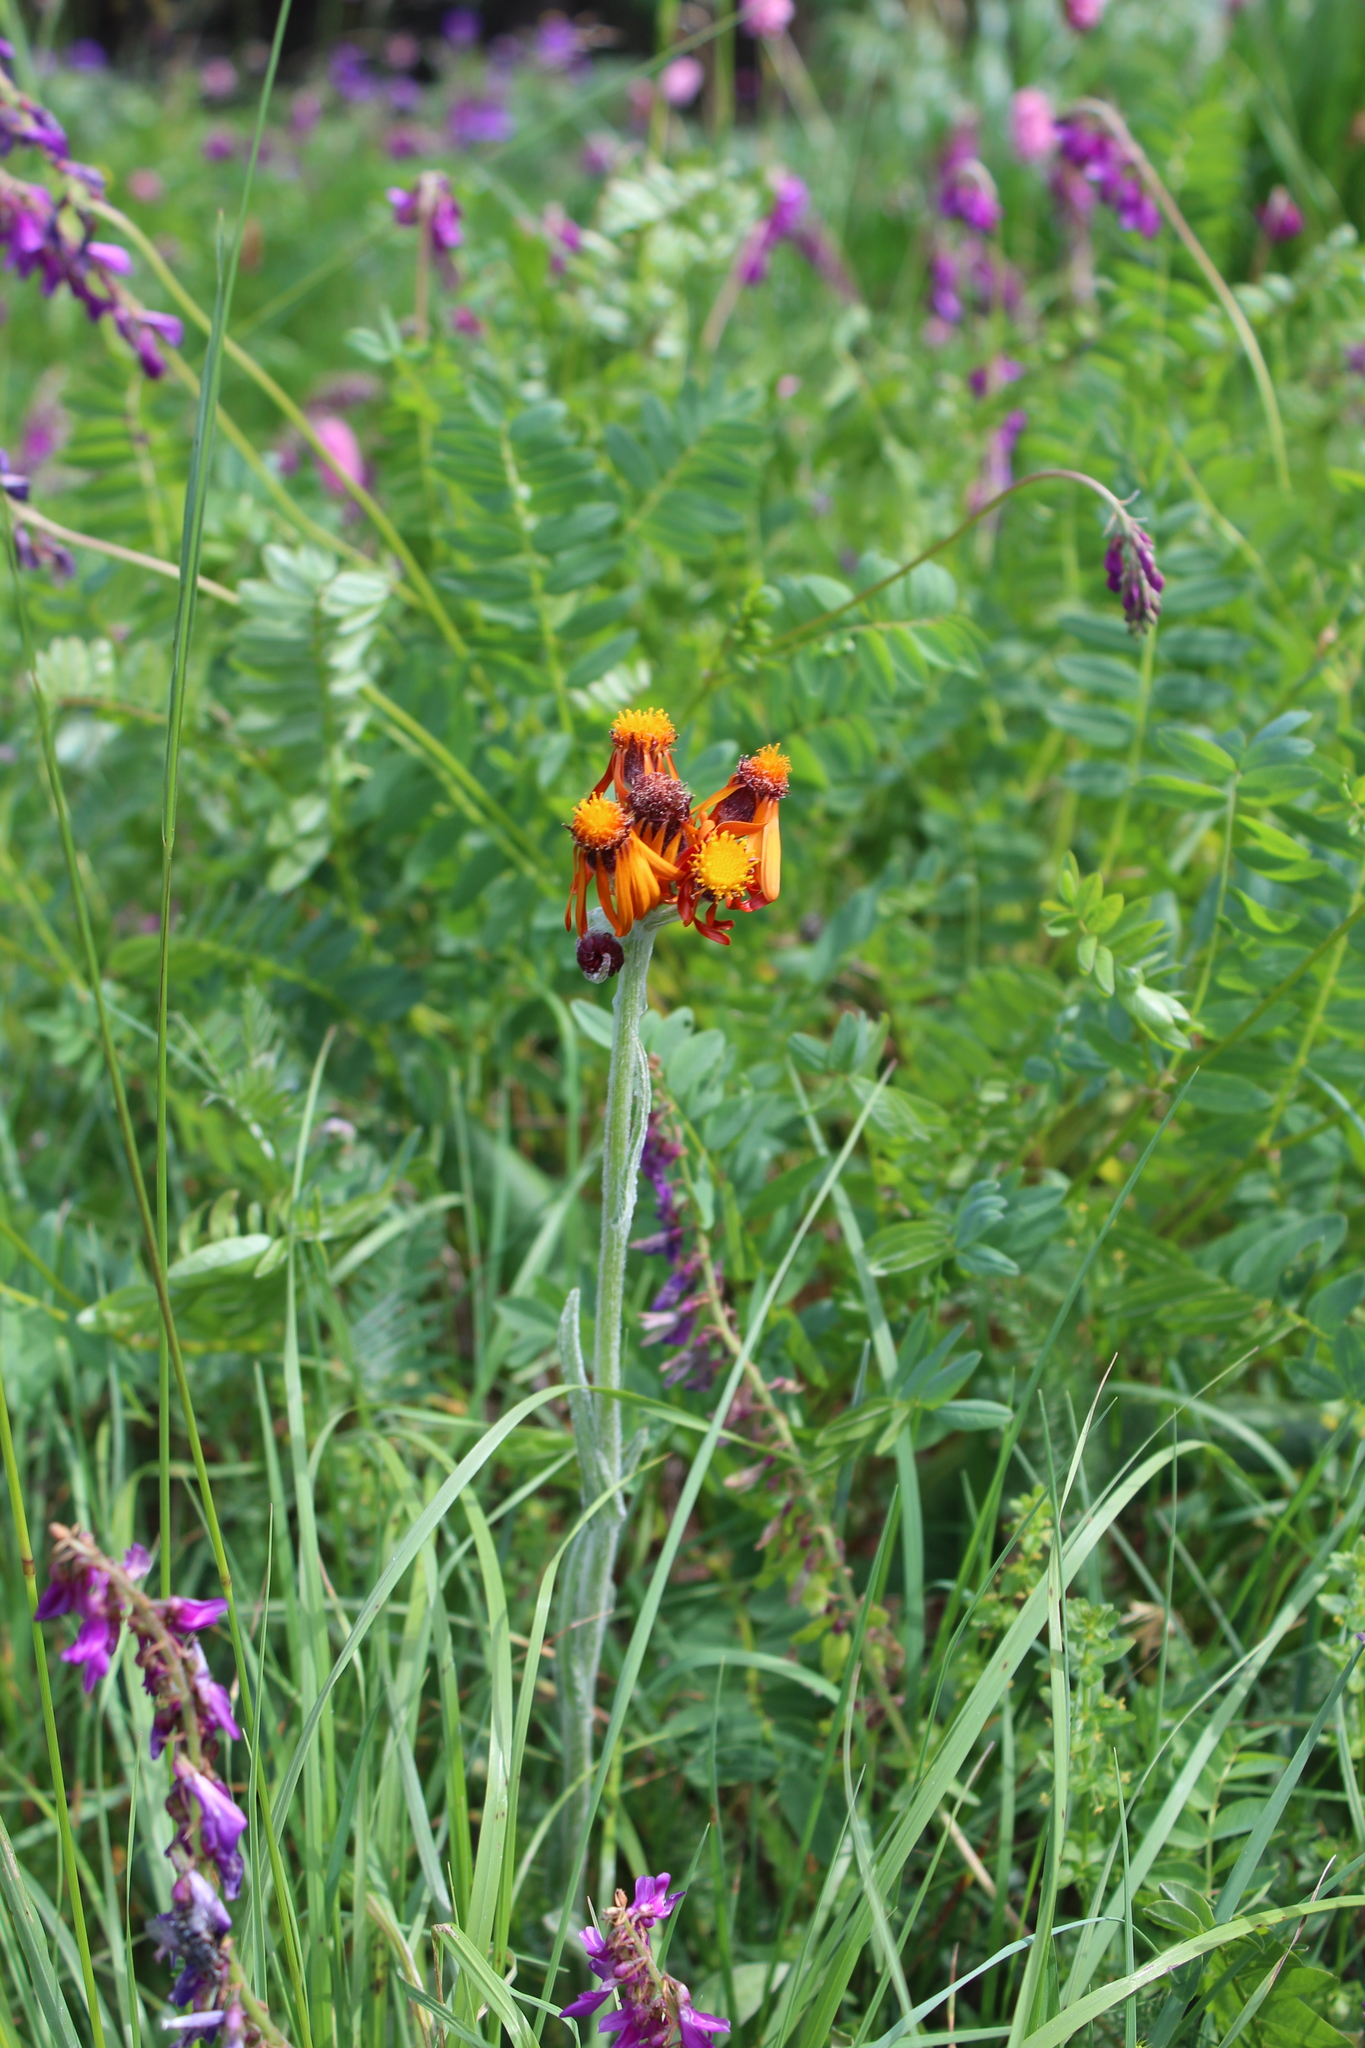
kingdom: Plantae
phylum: Tracheophyta
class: Magnoliopsida
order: Asterales
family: Asteraceae
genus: Tephroseris
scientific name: Tephroseris integrifolia
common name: Field fleawort
